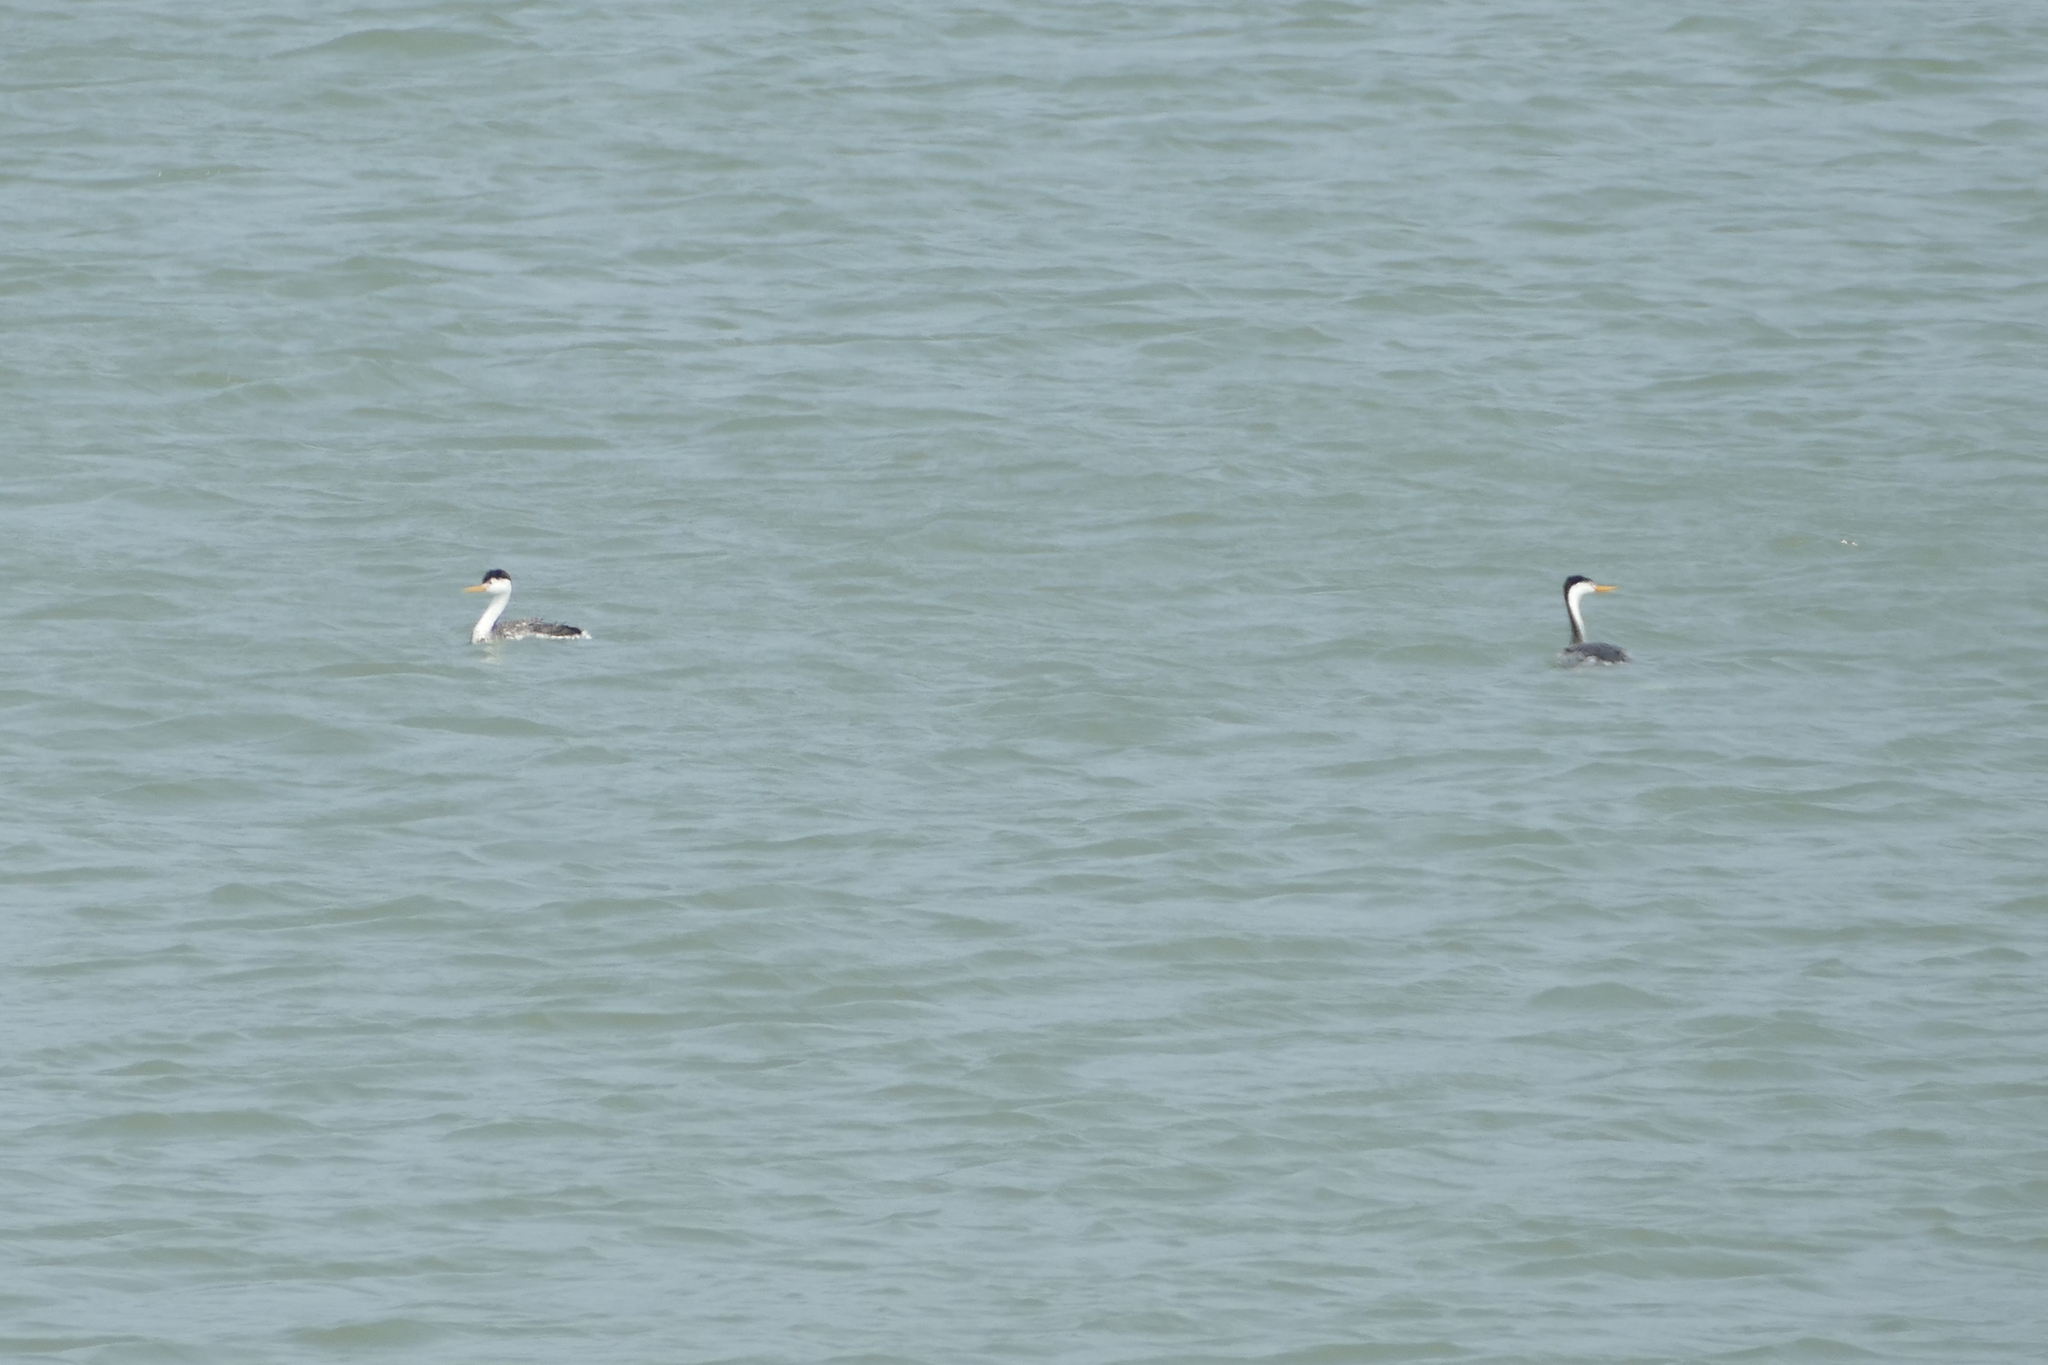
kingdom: Animalia
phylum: Chordata
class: Aves
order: Podicipediformes
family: Podicipedidae
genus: Aechmophorus
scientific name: Aechmophorus clarkii
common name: Clark's grebe
